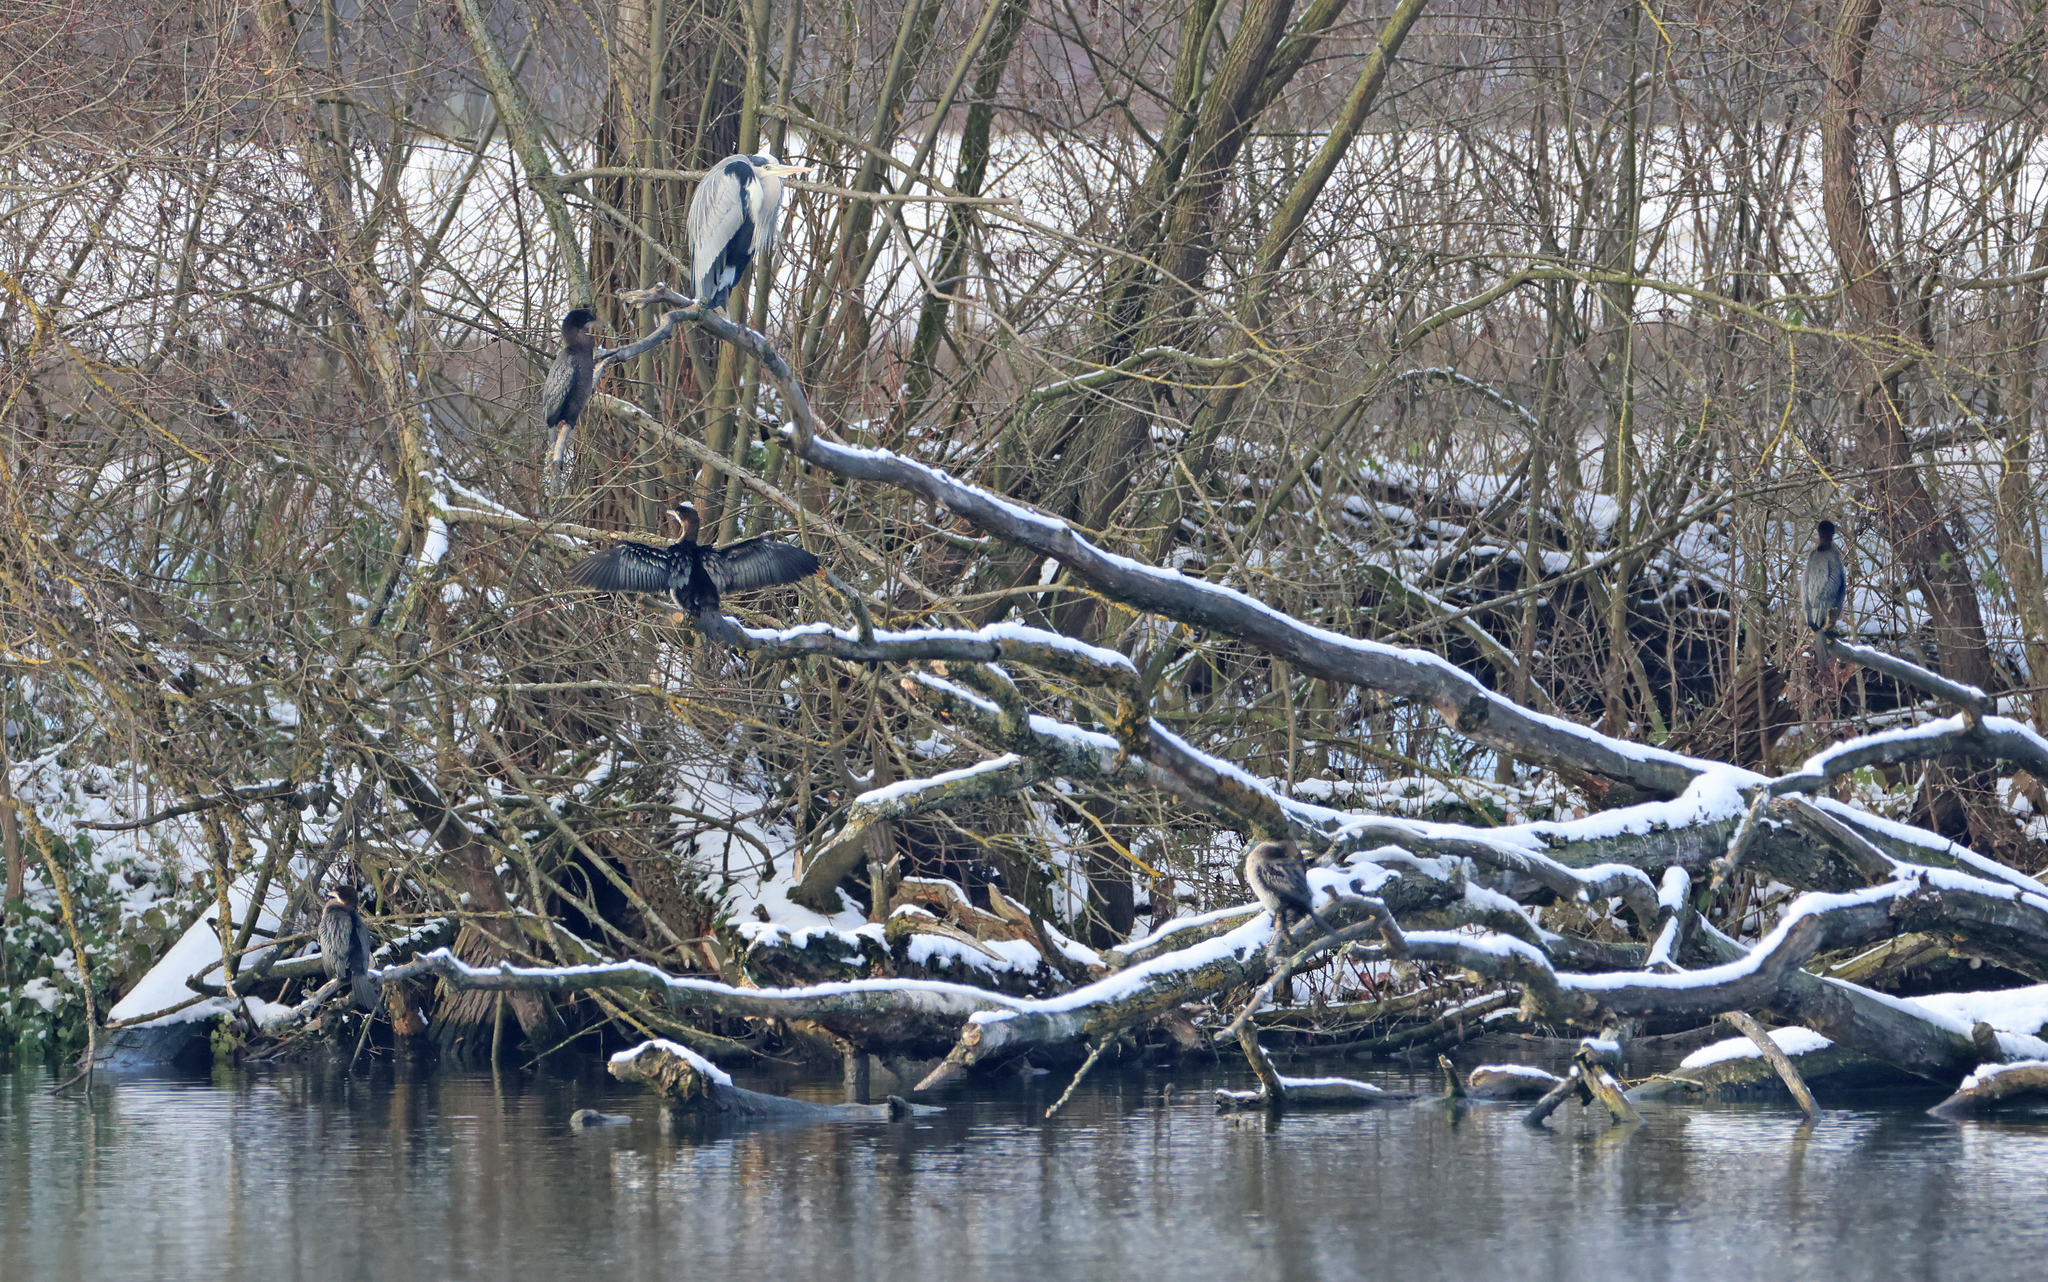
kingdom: Animalia
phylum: Chordata
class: Aves
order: Suliformes
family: Phalacrocoracidae
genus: Microcarbo
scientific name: Microcarbo pygmaeus
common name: Pygmy cormorant
